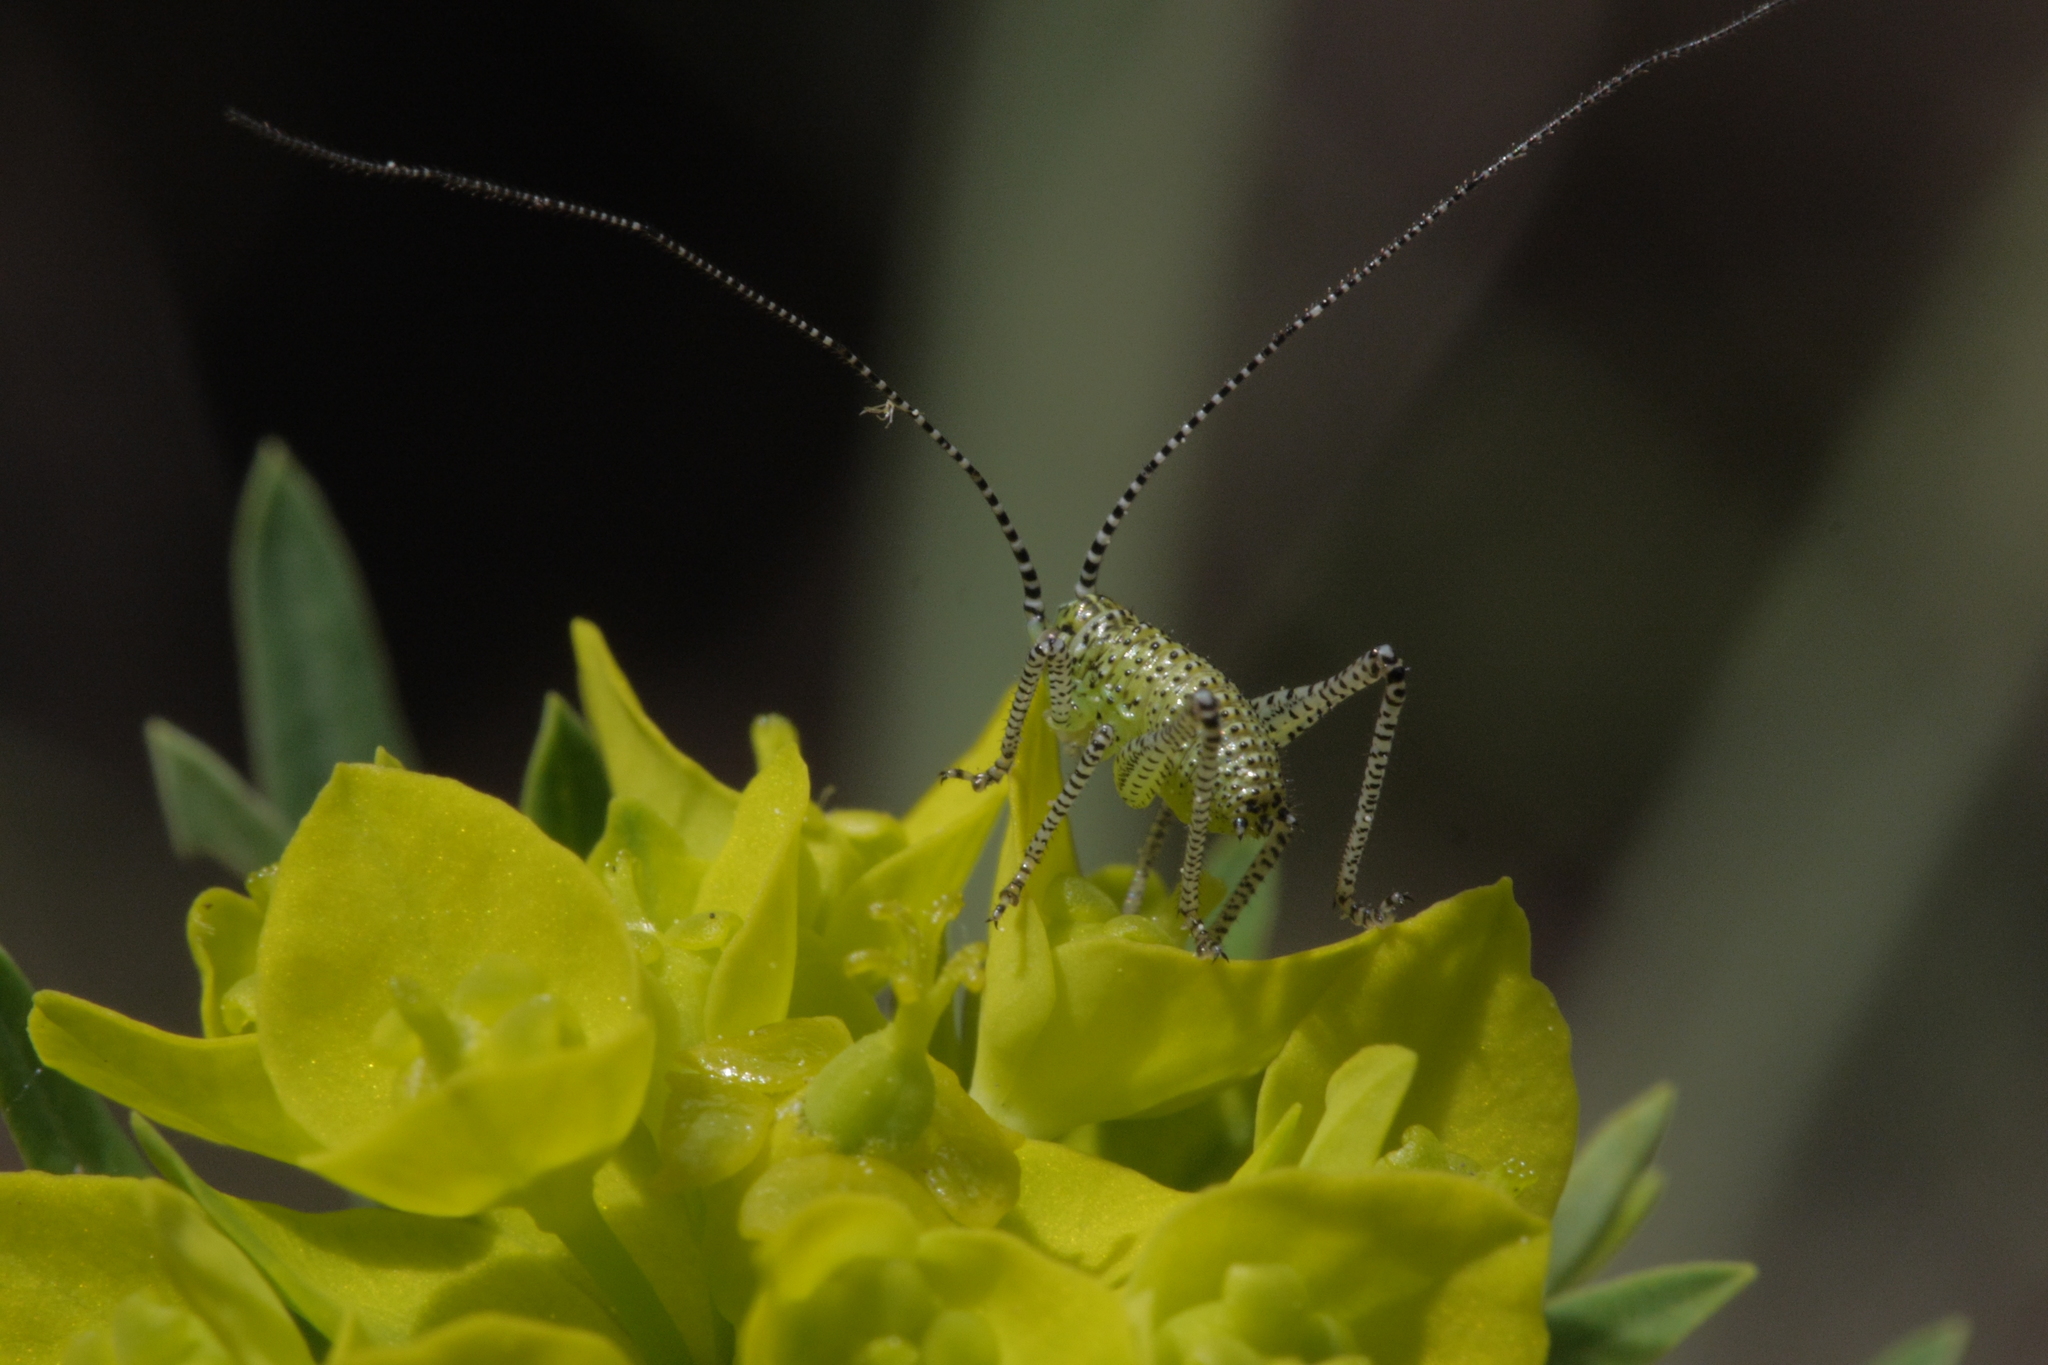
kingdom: Animalia
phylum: Arthropoda
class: Insecta
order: Orthoptera
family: Tettigoniidae
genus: Leptophyes
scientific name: Leptophyes punctatissima
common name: Speckled bush-cricket
